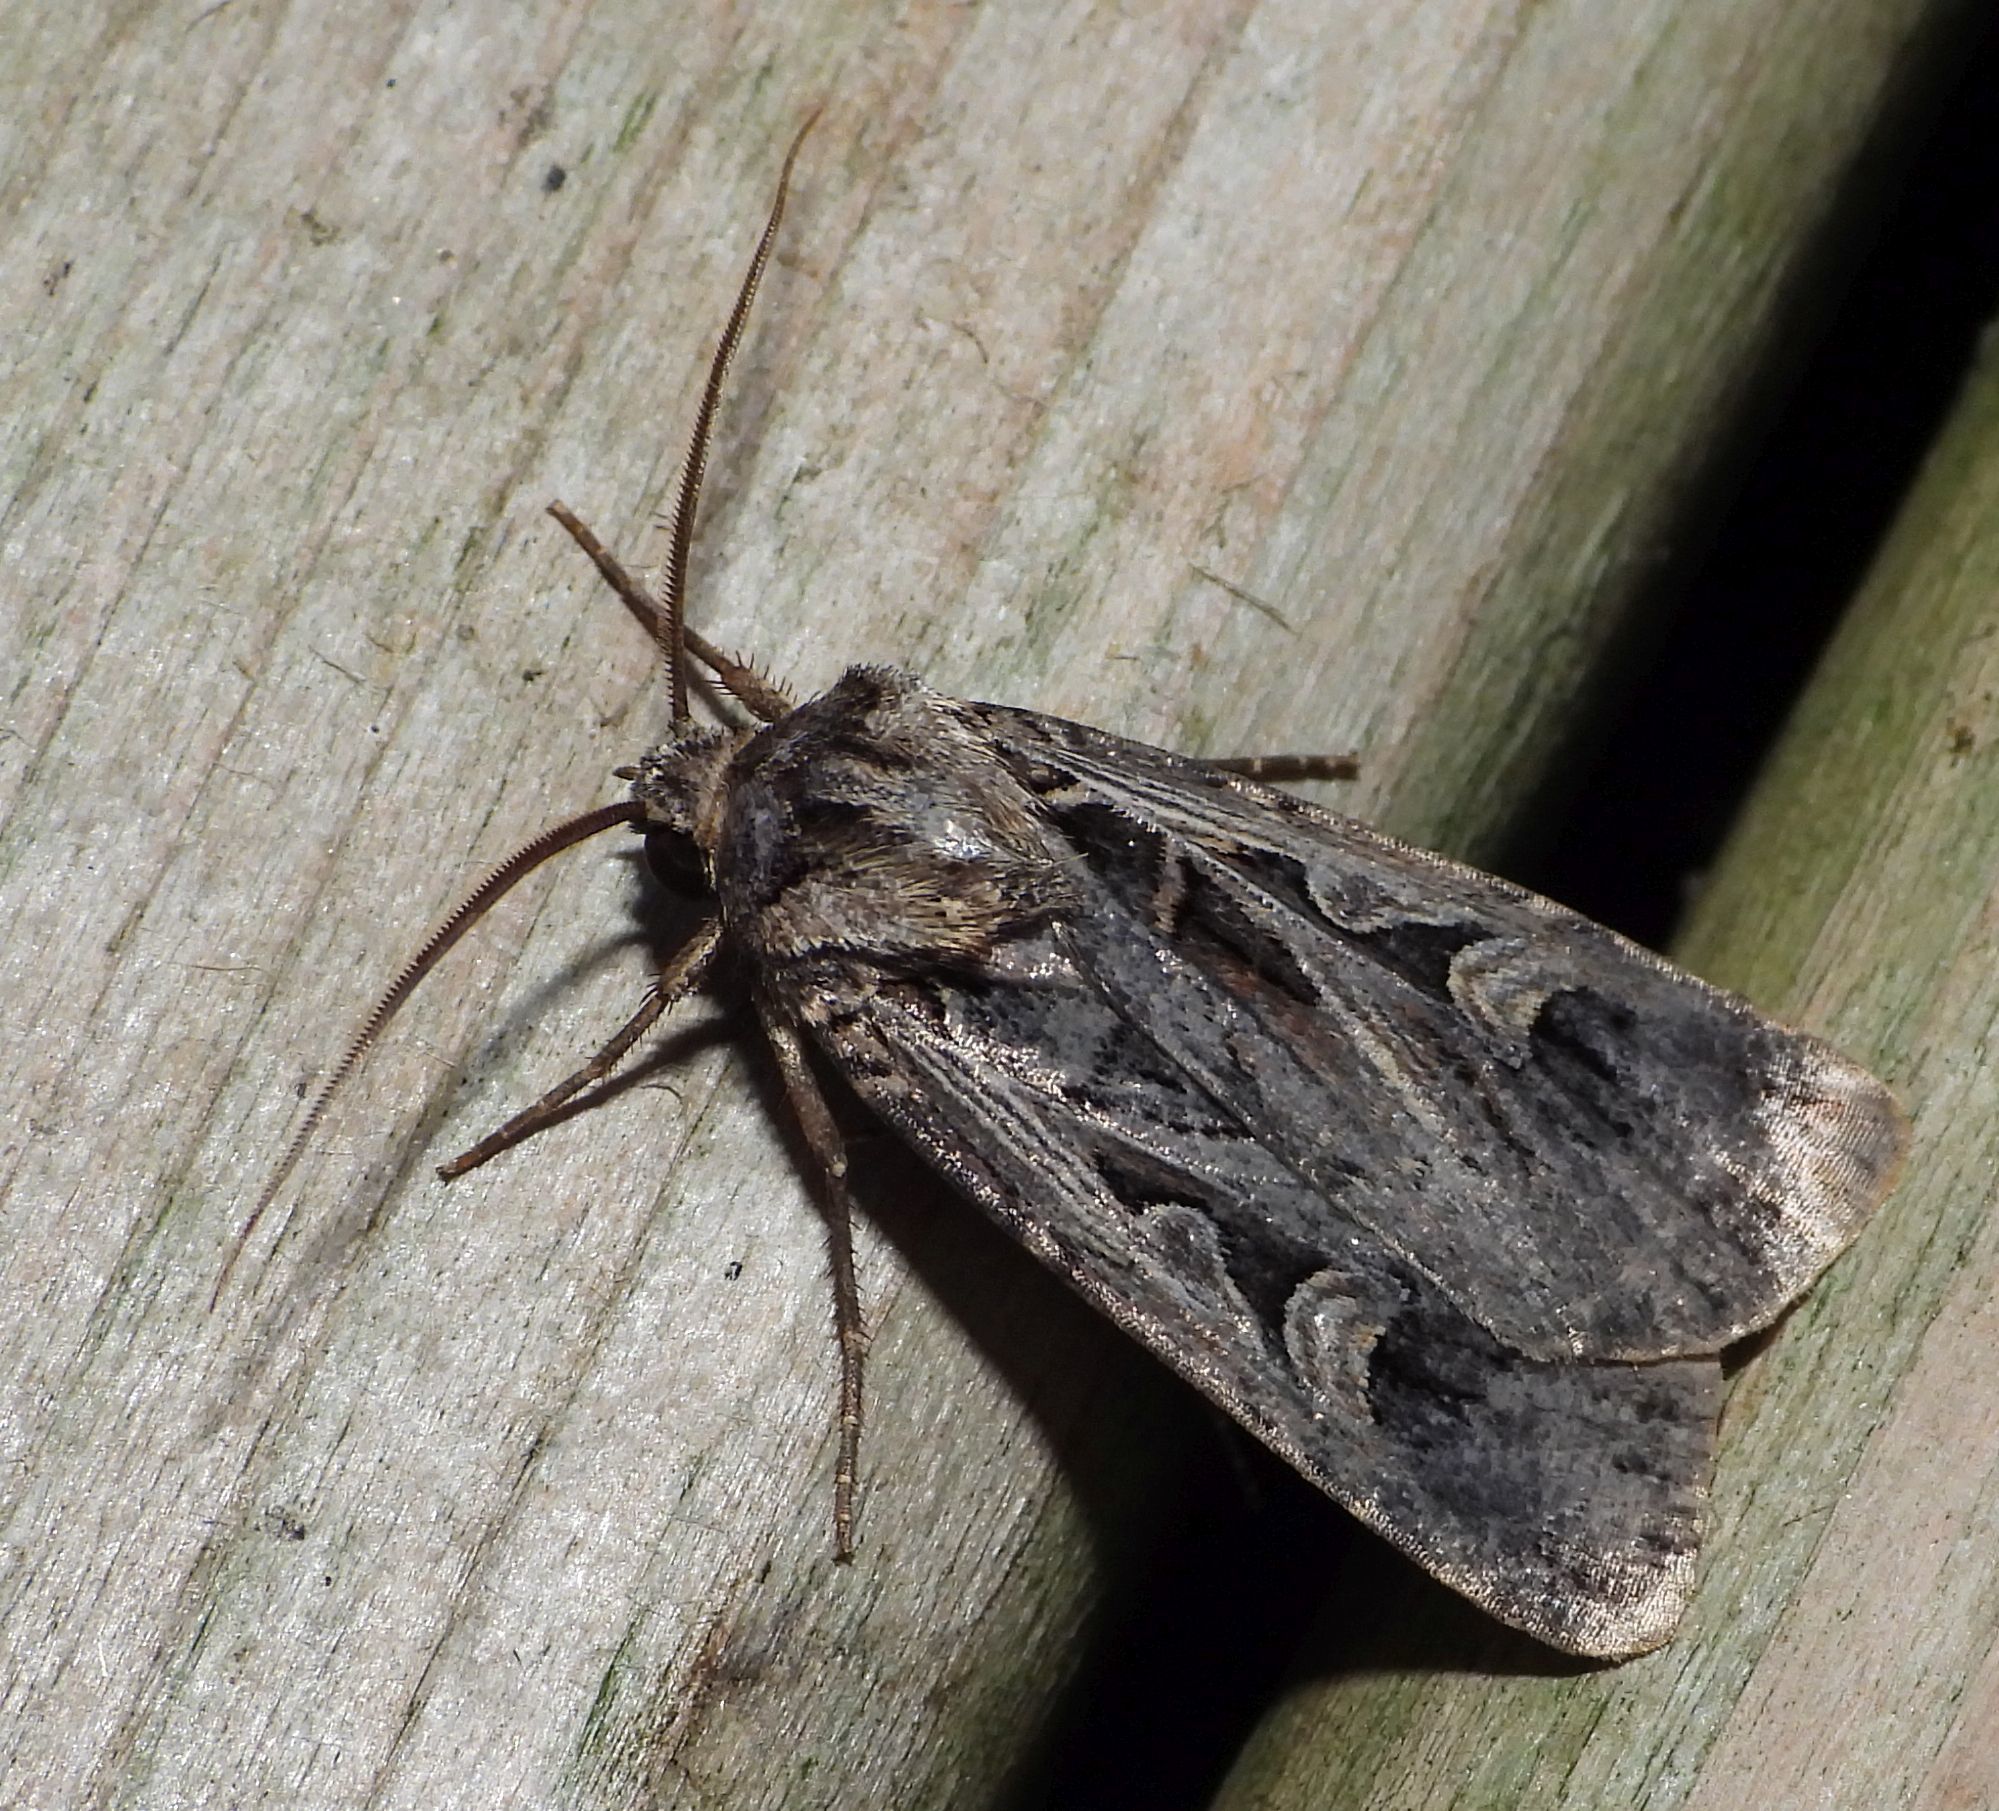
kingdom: Animalia
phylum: Arthropoda
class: Insecta
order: Lepidoptera
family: Noctuidae
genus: Feltia
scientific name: Feltia tricosa
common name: Confused dart moth
